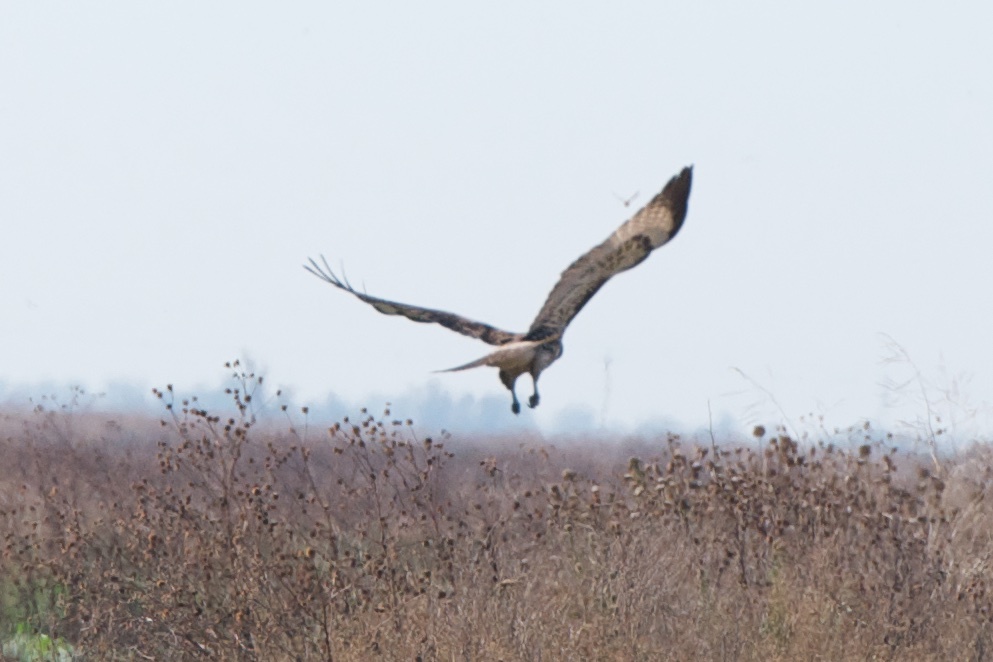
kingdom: Animalia
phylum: Chordata
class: Aves
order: Accipitriformes
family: Accipitridae
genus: Buteo
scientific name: Buteo jamaicensis
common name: Red-tailed hawk
